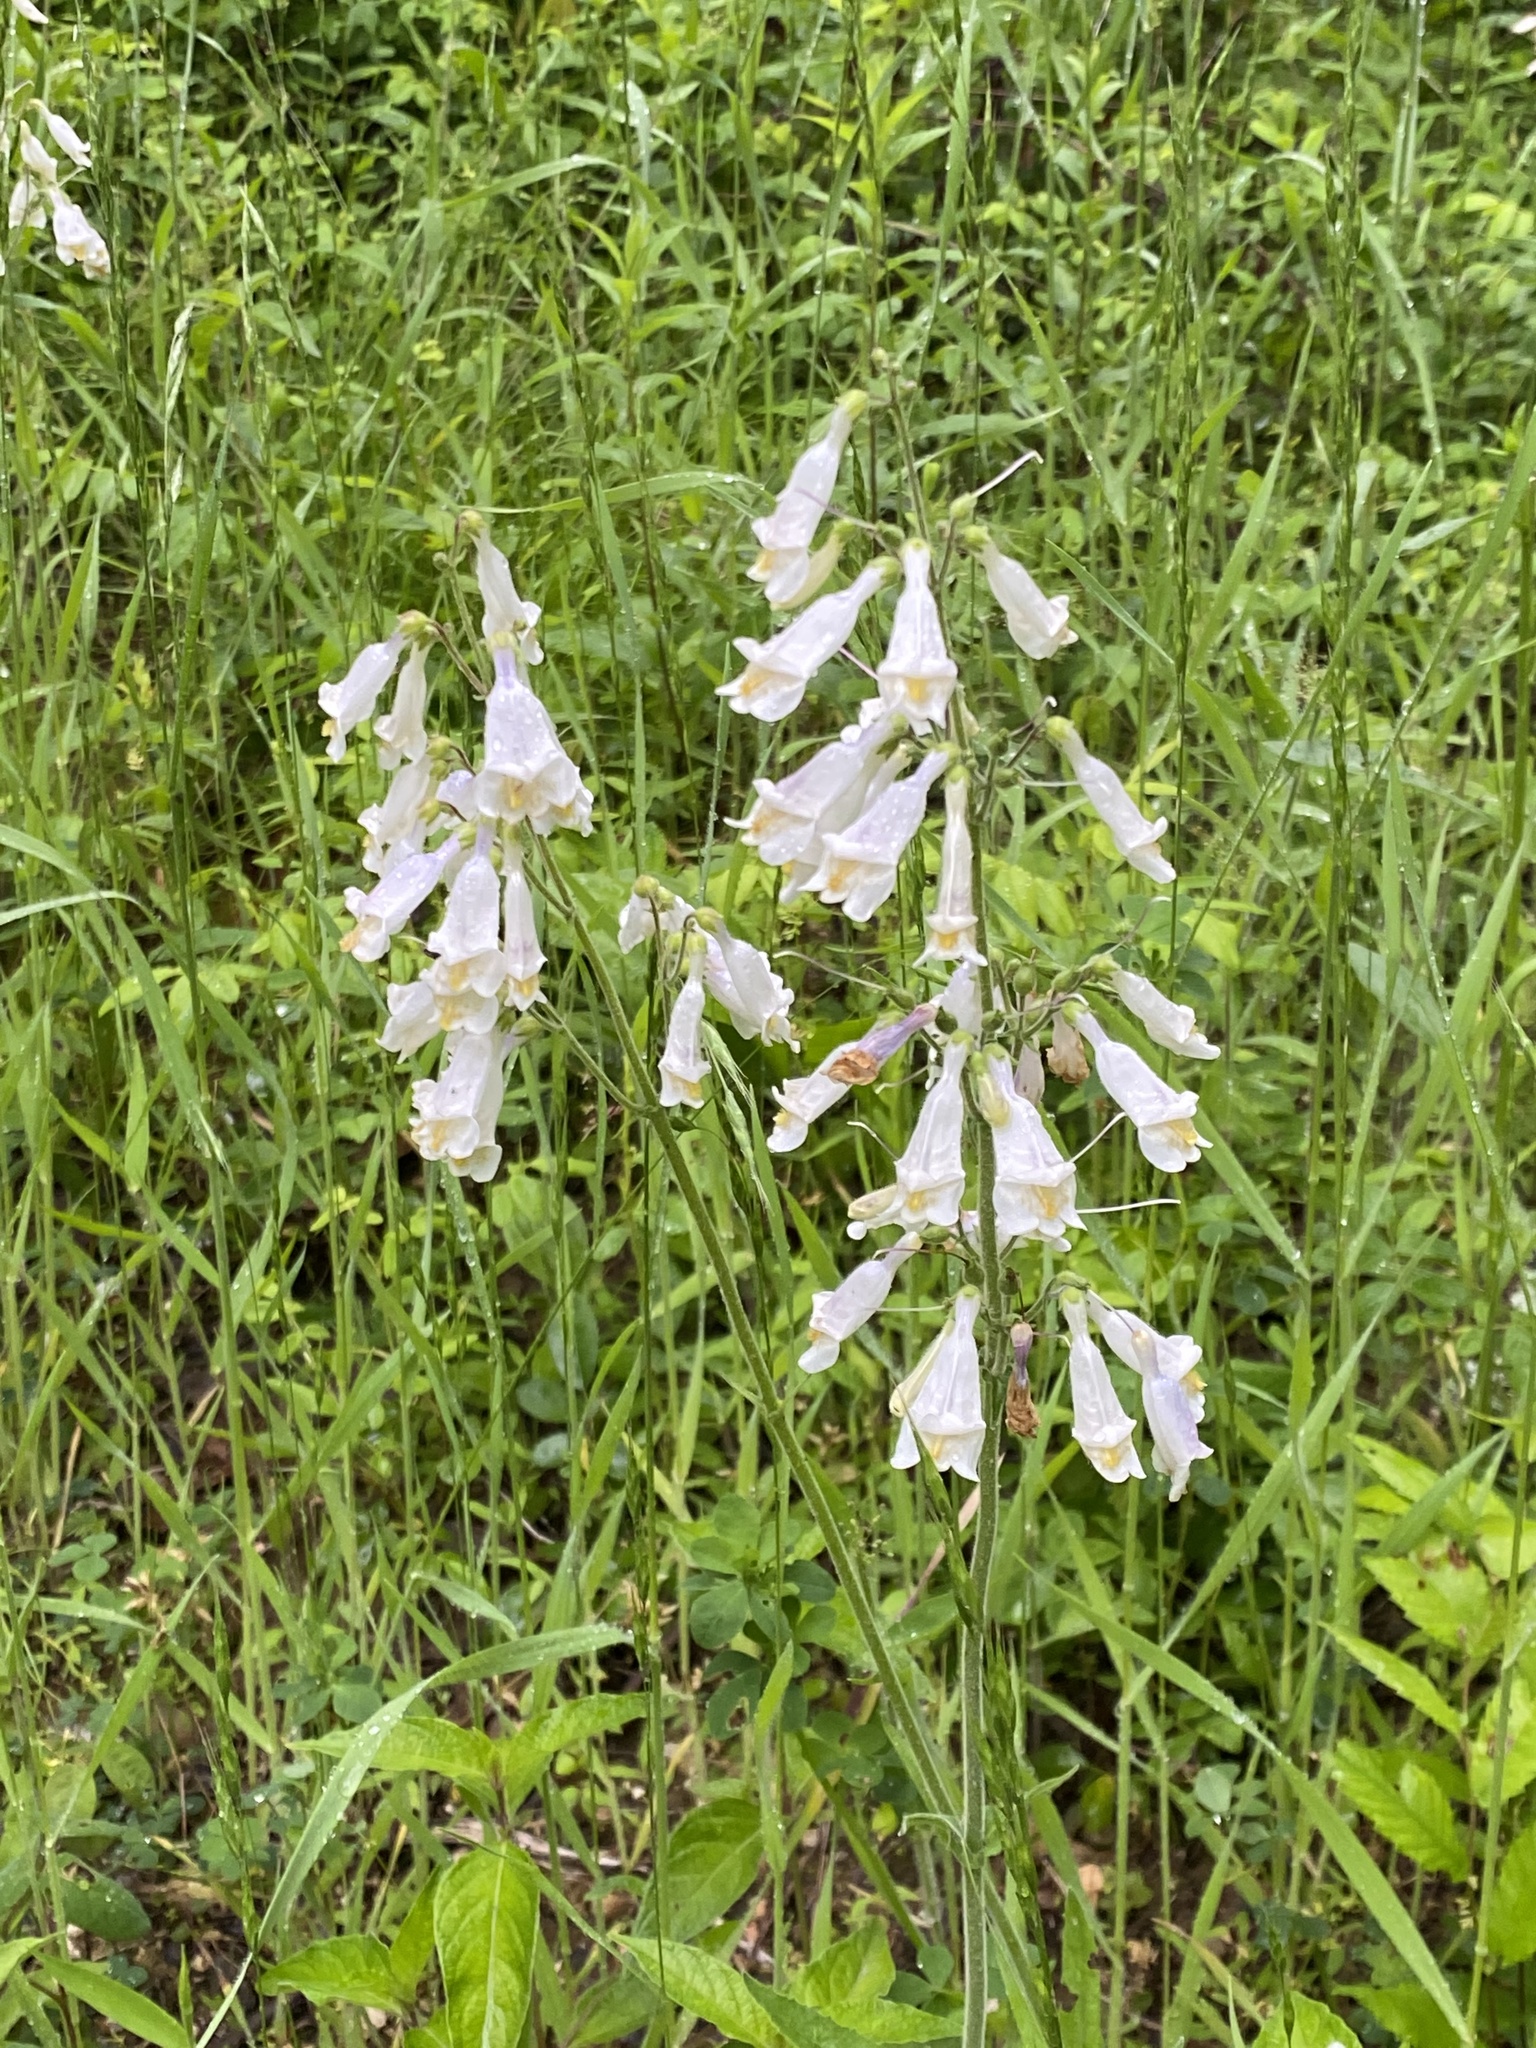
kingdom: Plantae
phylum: Tracheophyta
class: Magnoliopsida
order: Lamiales
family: Plantaginaceae
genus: Penstemon
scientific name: Penstemon tenuiflorus
